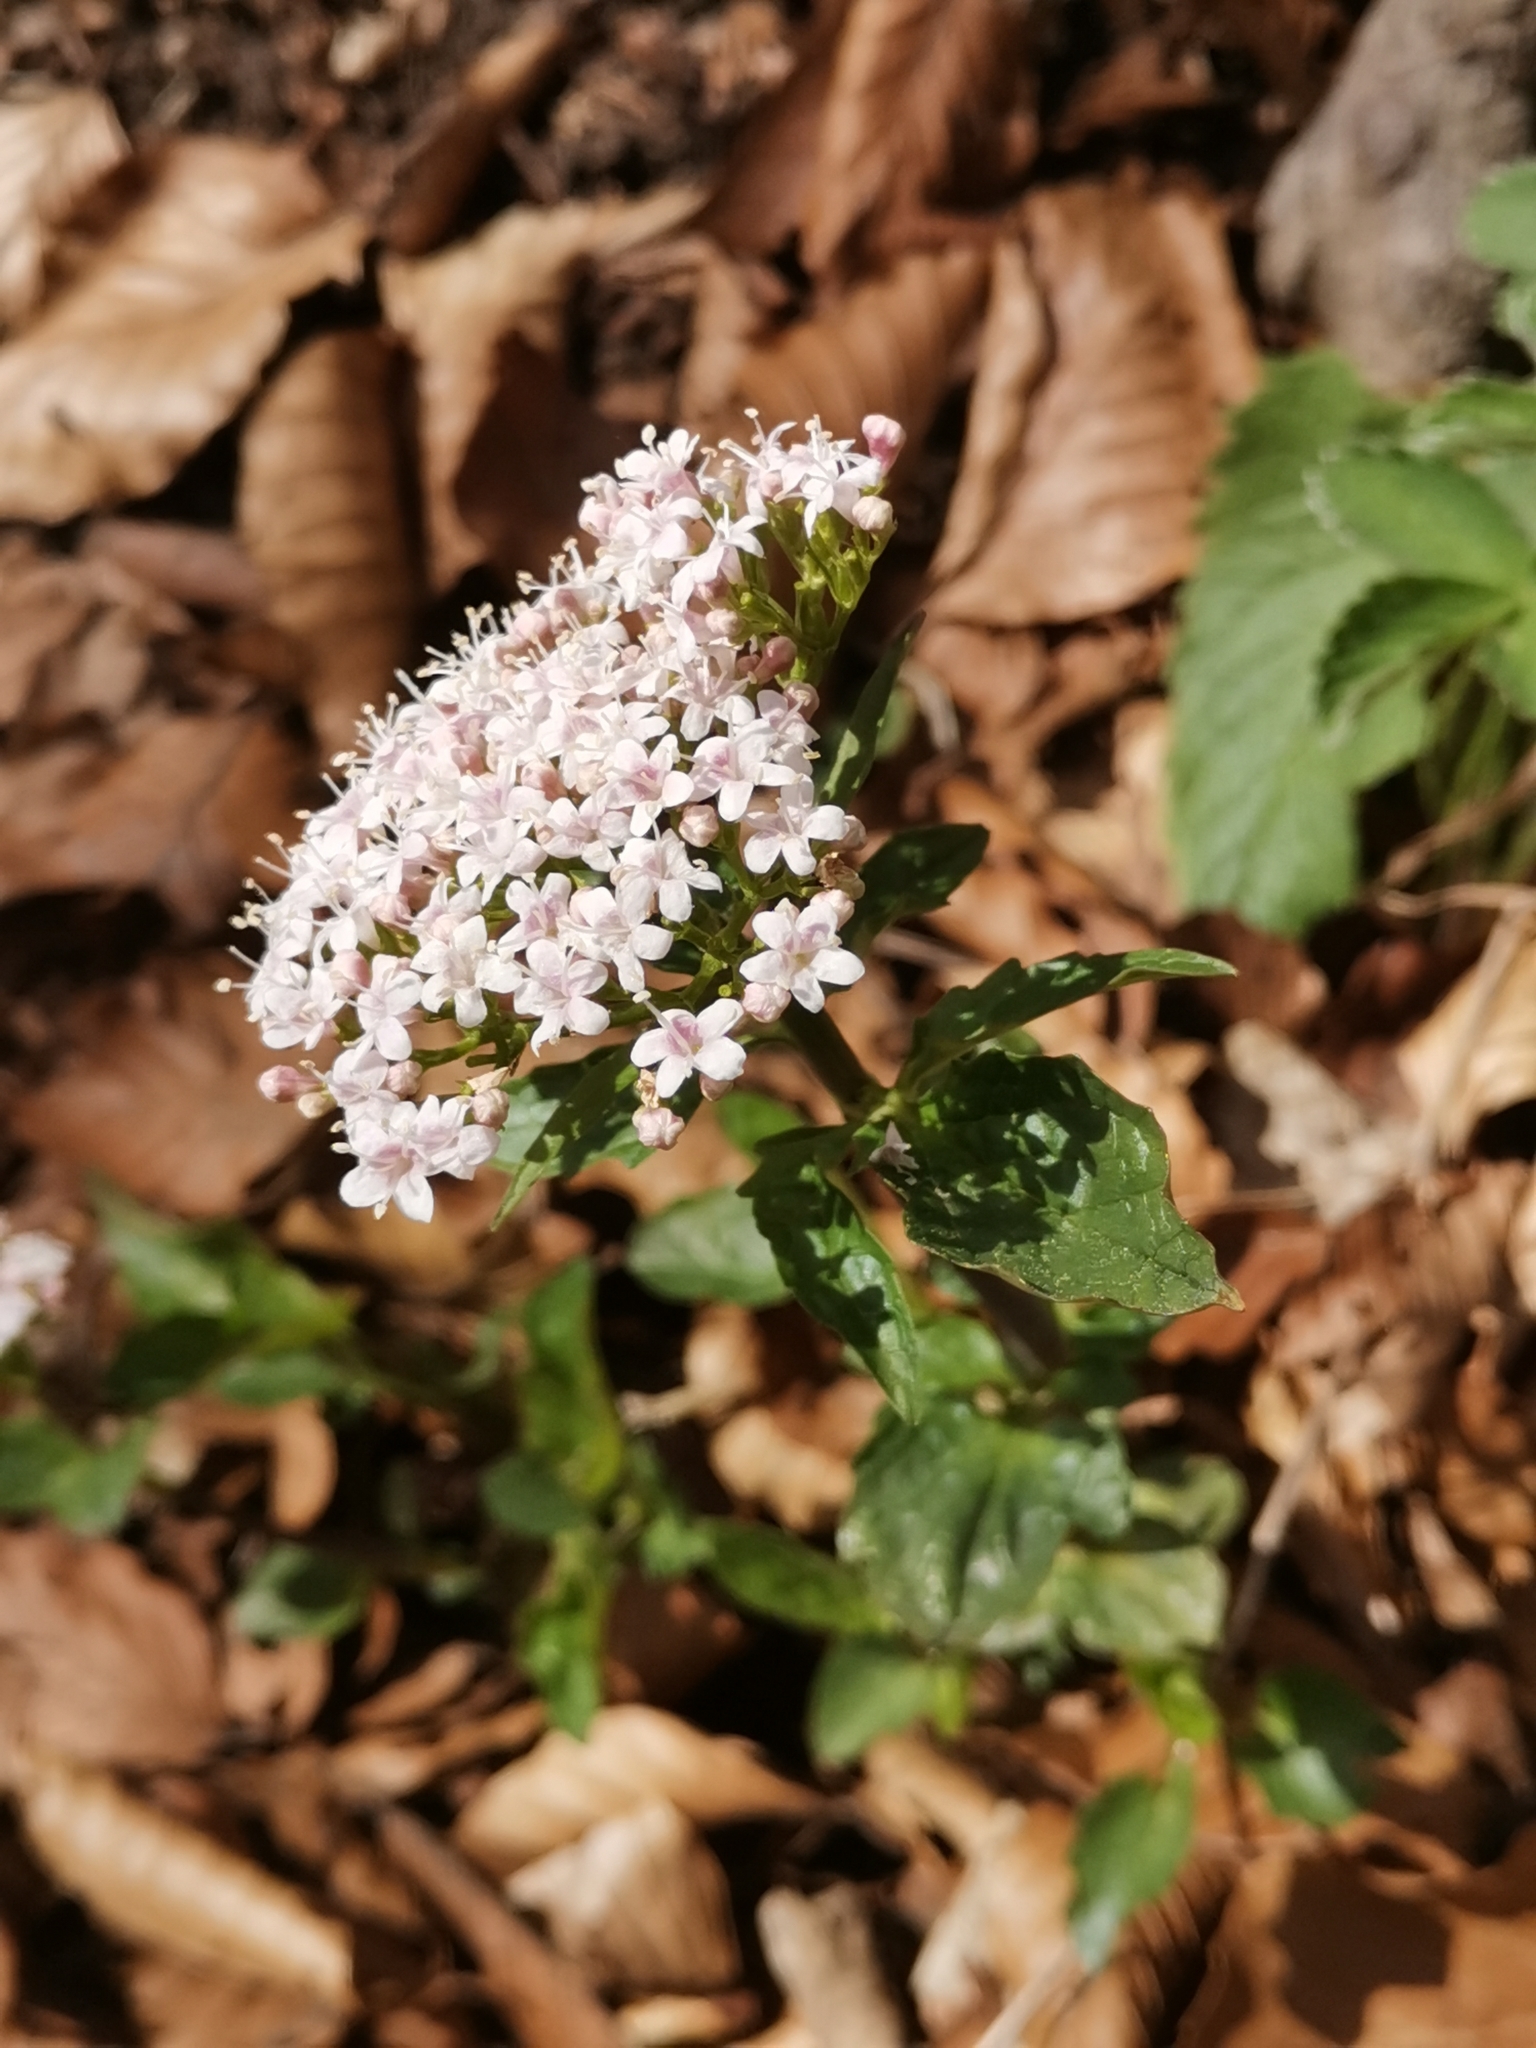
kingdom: Plantae
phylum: Tracheophyta
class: Magnoliopsida
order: Dipsacales
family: Caprifoliaceae
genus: Valeriana
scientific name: Valeriana tripteris
